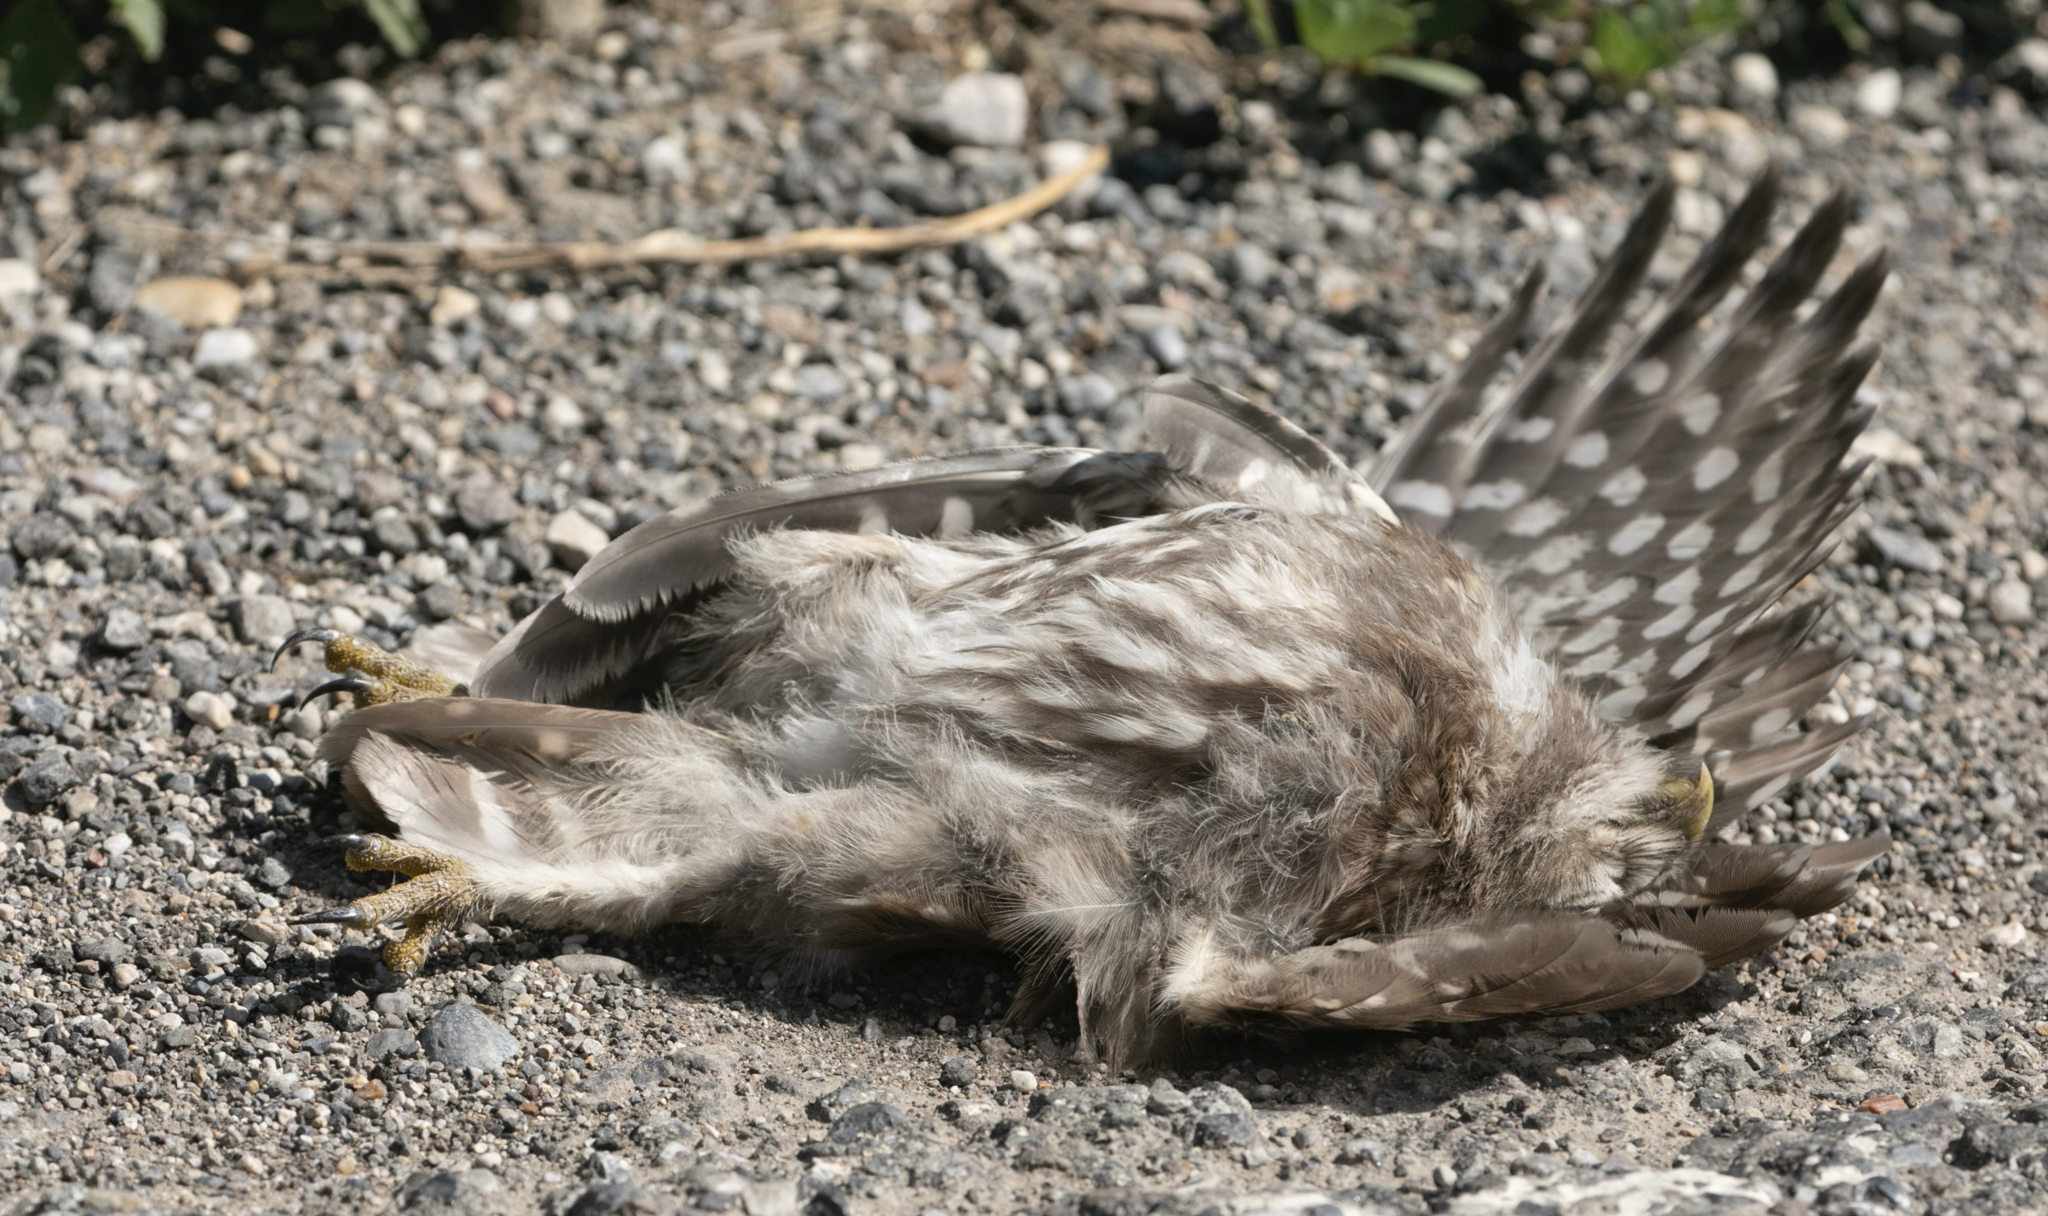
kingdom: Animalia
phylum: Chordata
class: Aves
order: Strigiformes
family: Strigidae
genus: Athene
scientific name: Athene noctua
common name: Little owl
